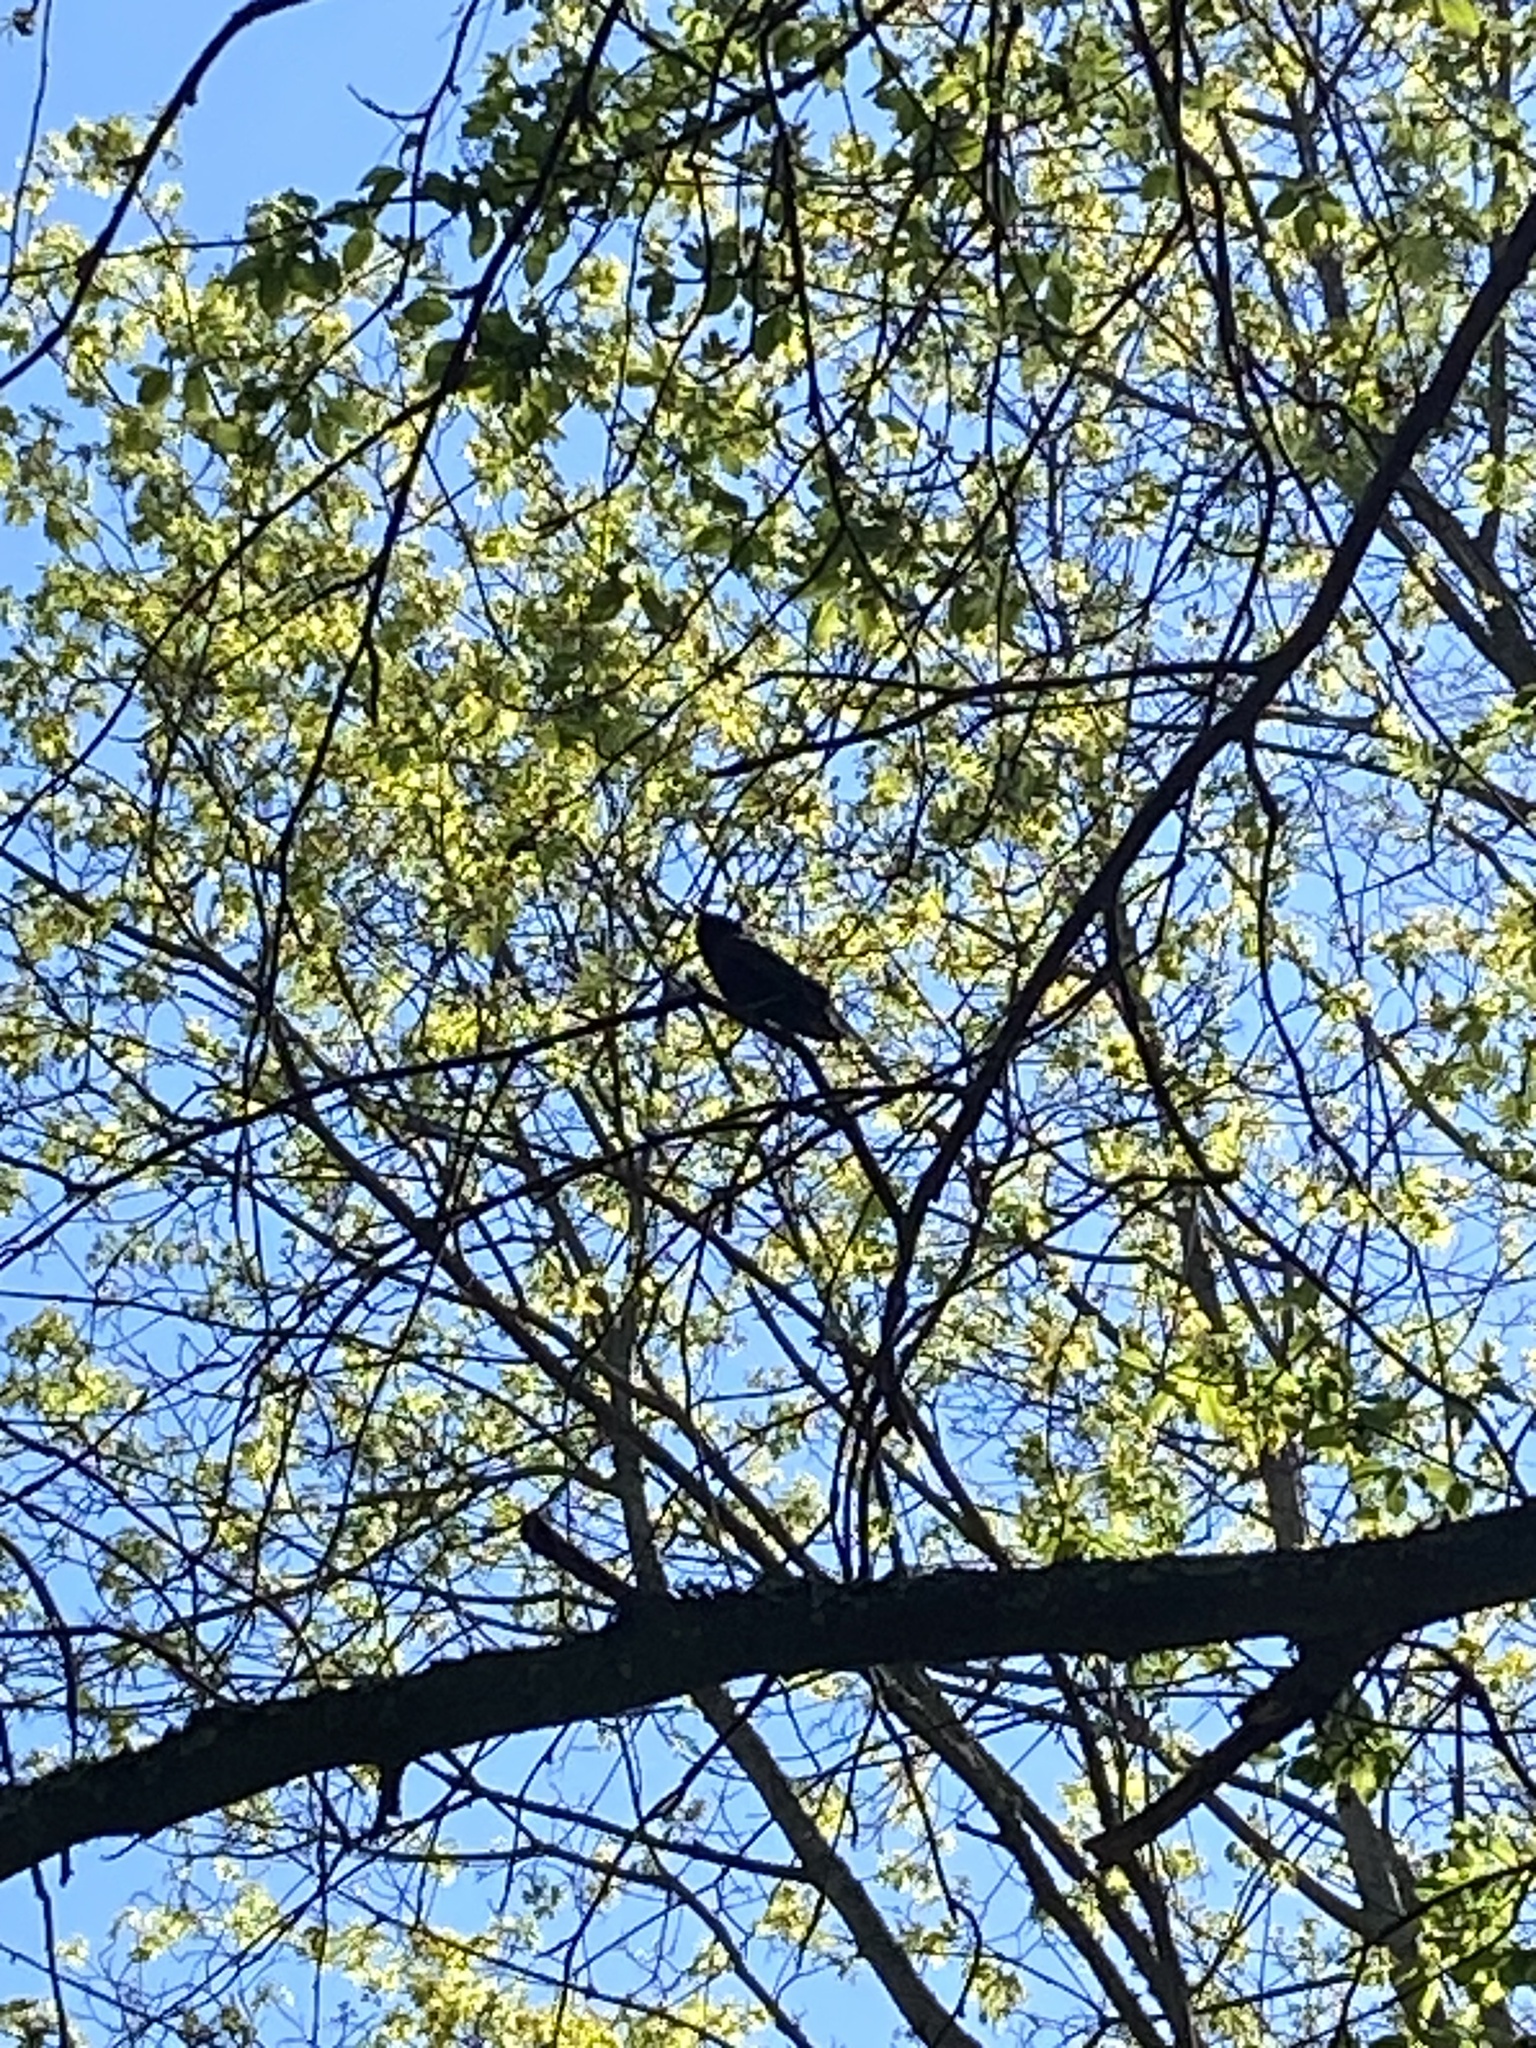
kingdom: Animalia
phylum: Chordata
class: Aves
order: Passeriformes
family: Sturnidae
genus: Sturnus
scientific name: Sturnus vulgaris
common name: Common starling
